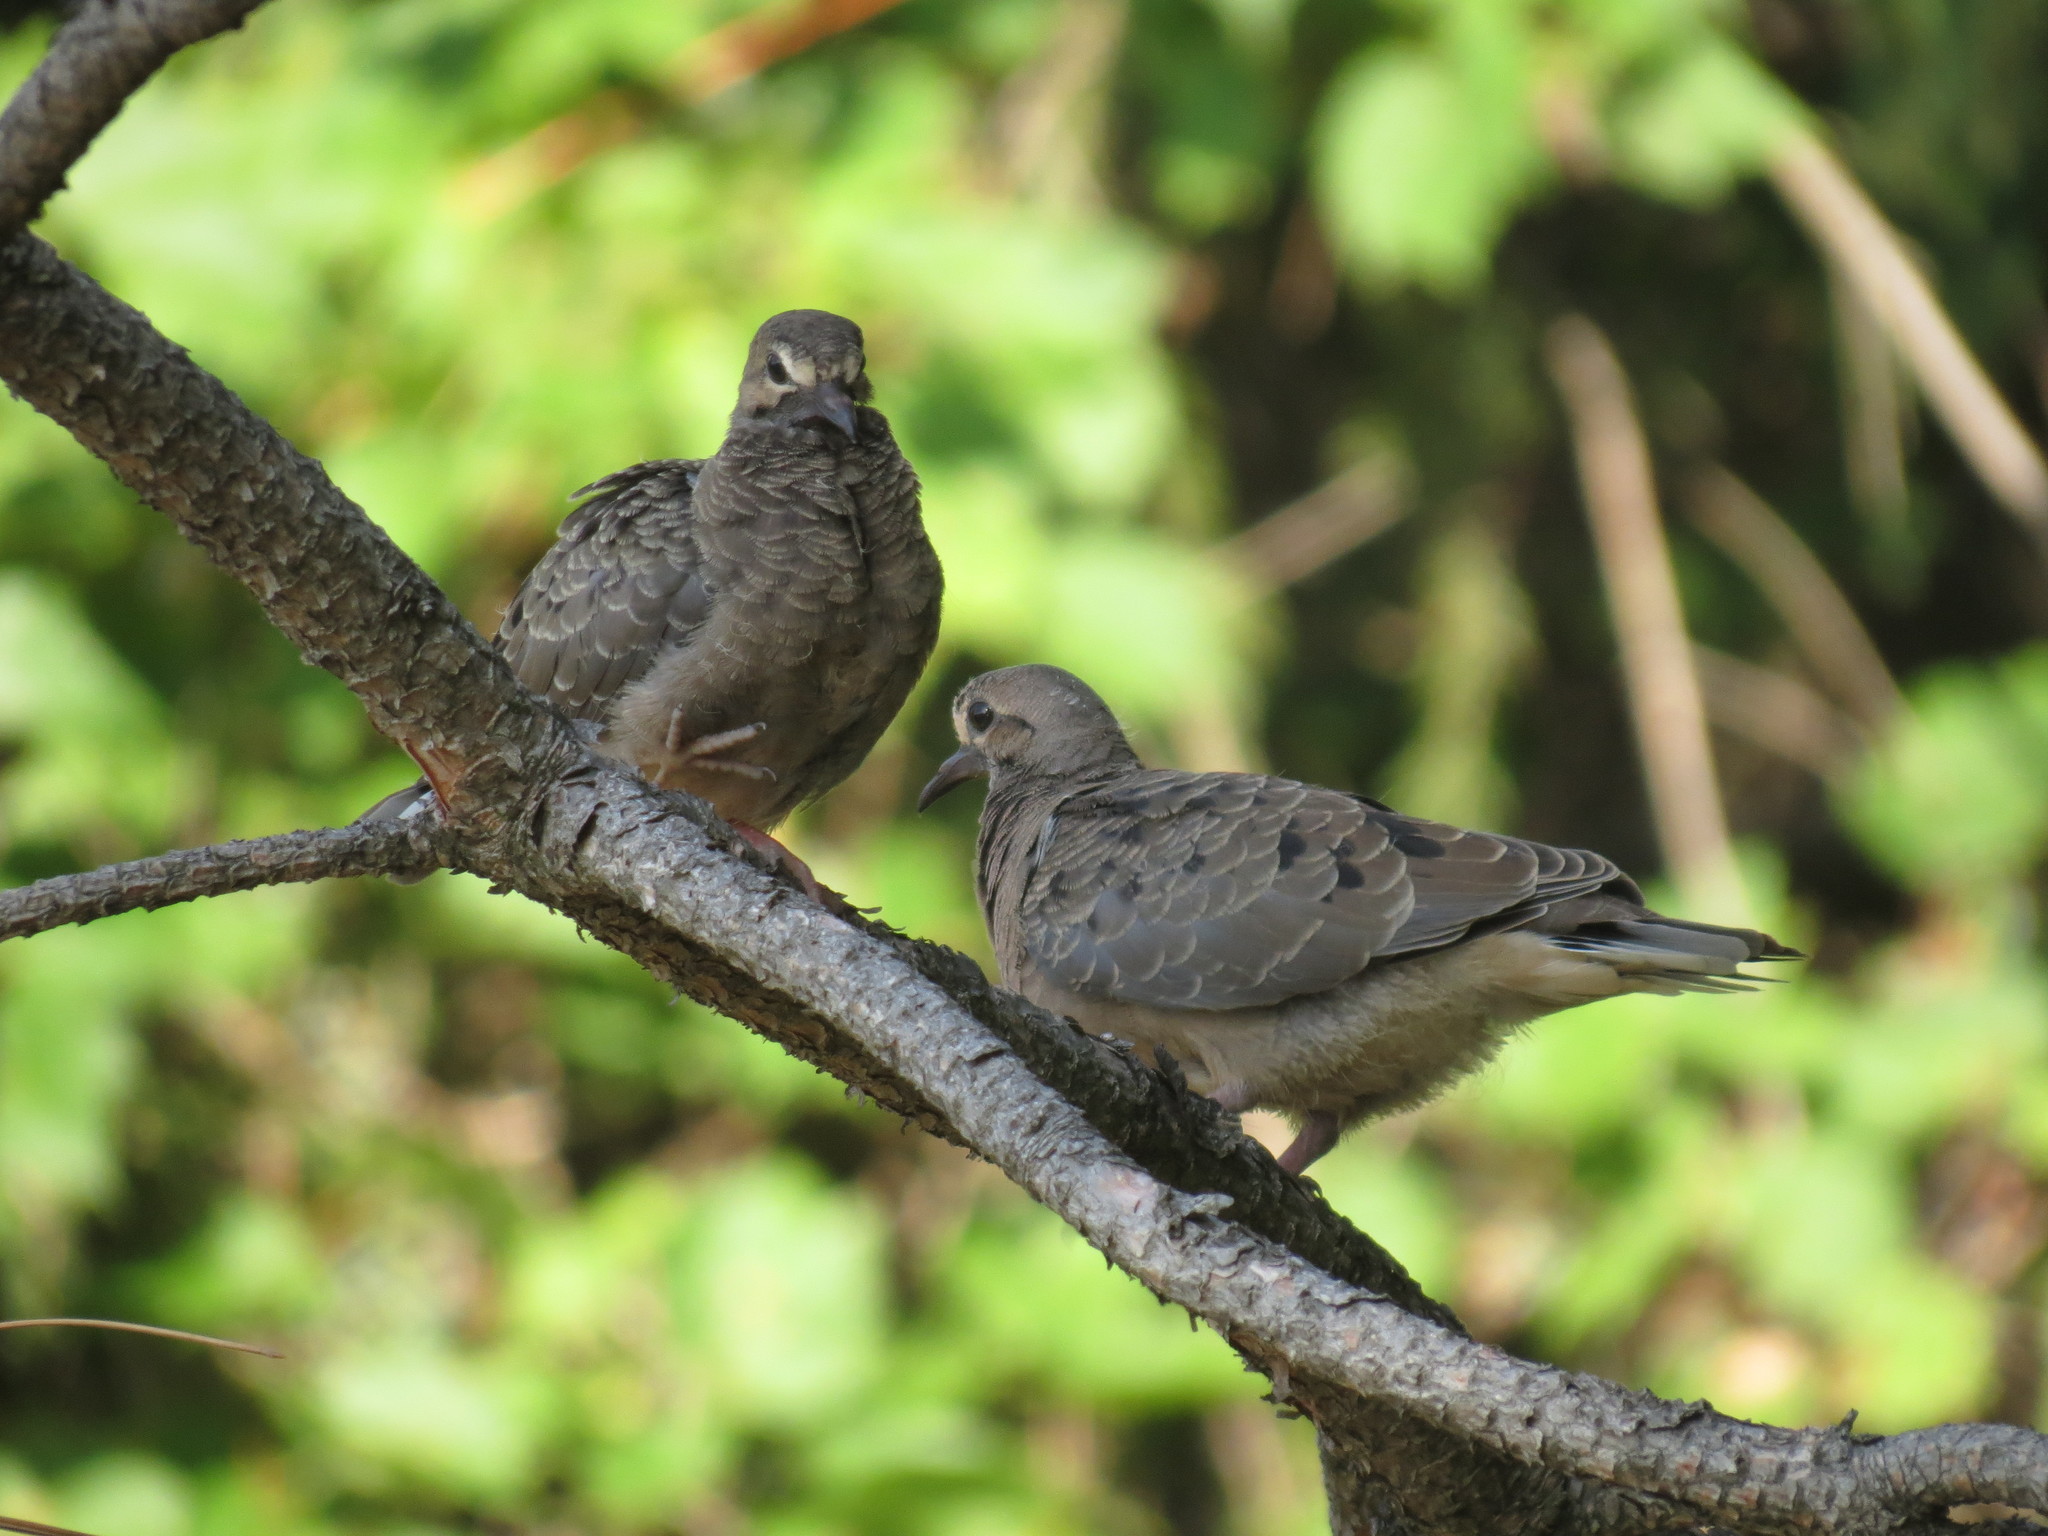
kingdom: Animalia
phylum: Chordata
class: Aves
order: Columbiformes
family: Columbidae
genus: Zenaida
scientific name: Zenaida macroura
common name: Mourning dove
